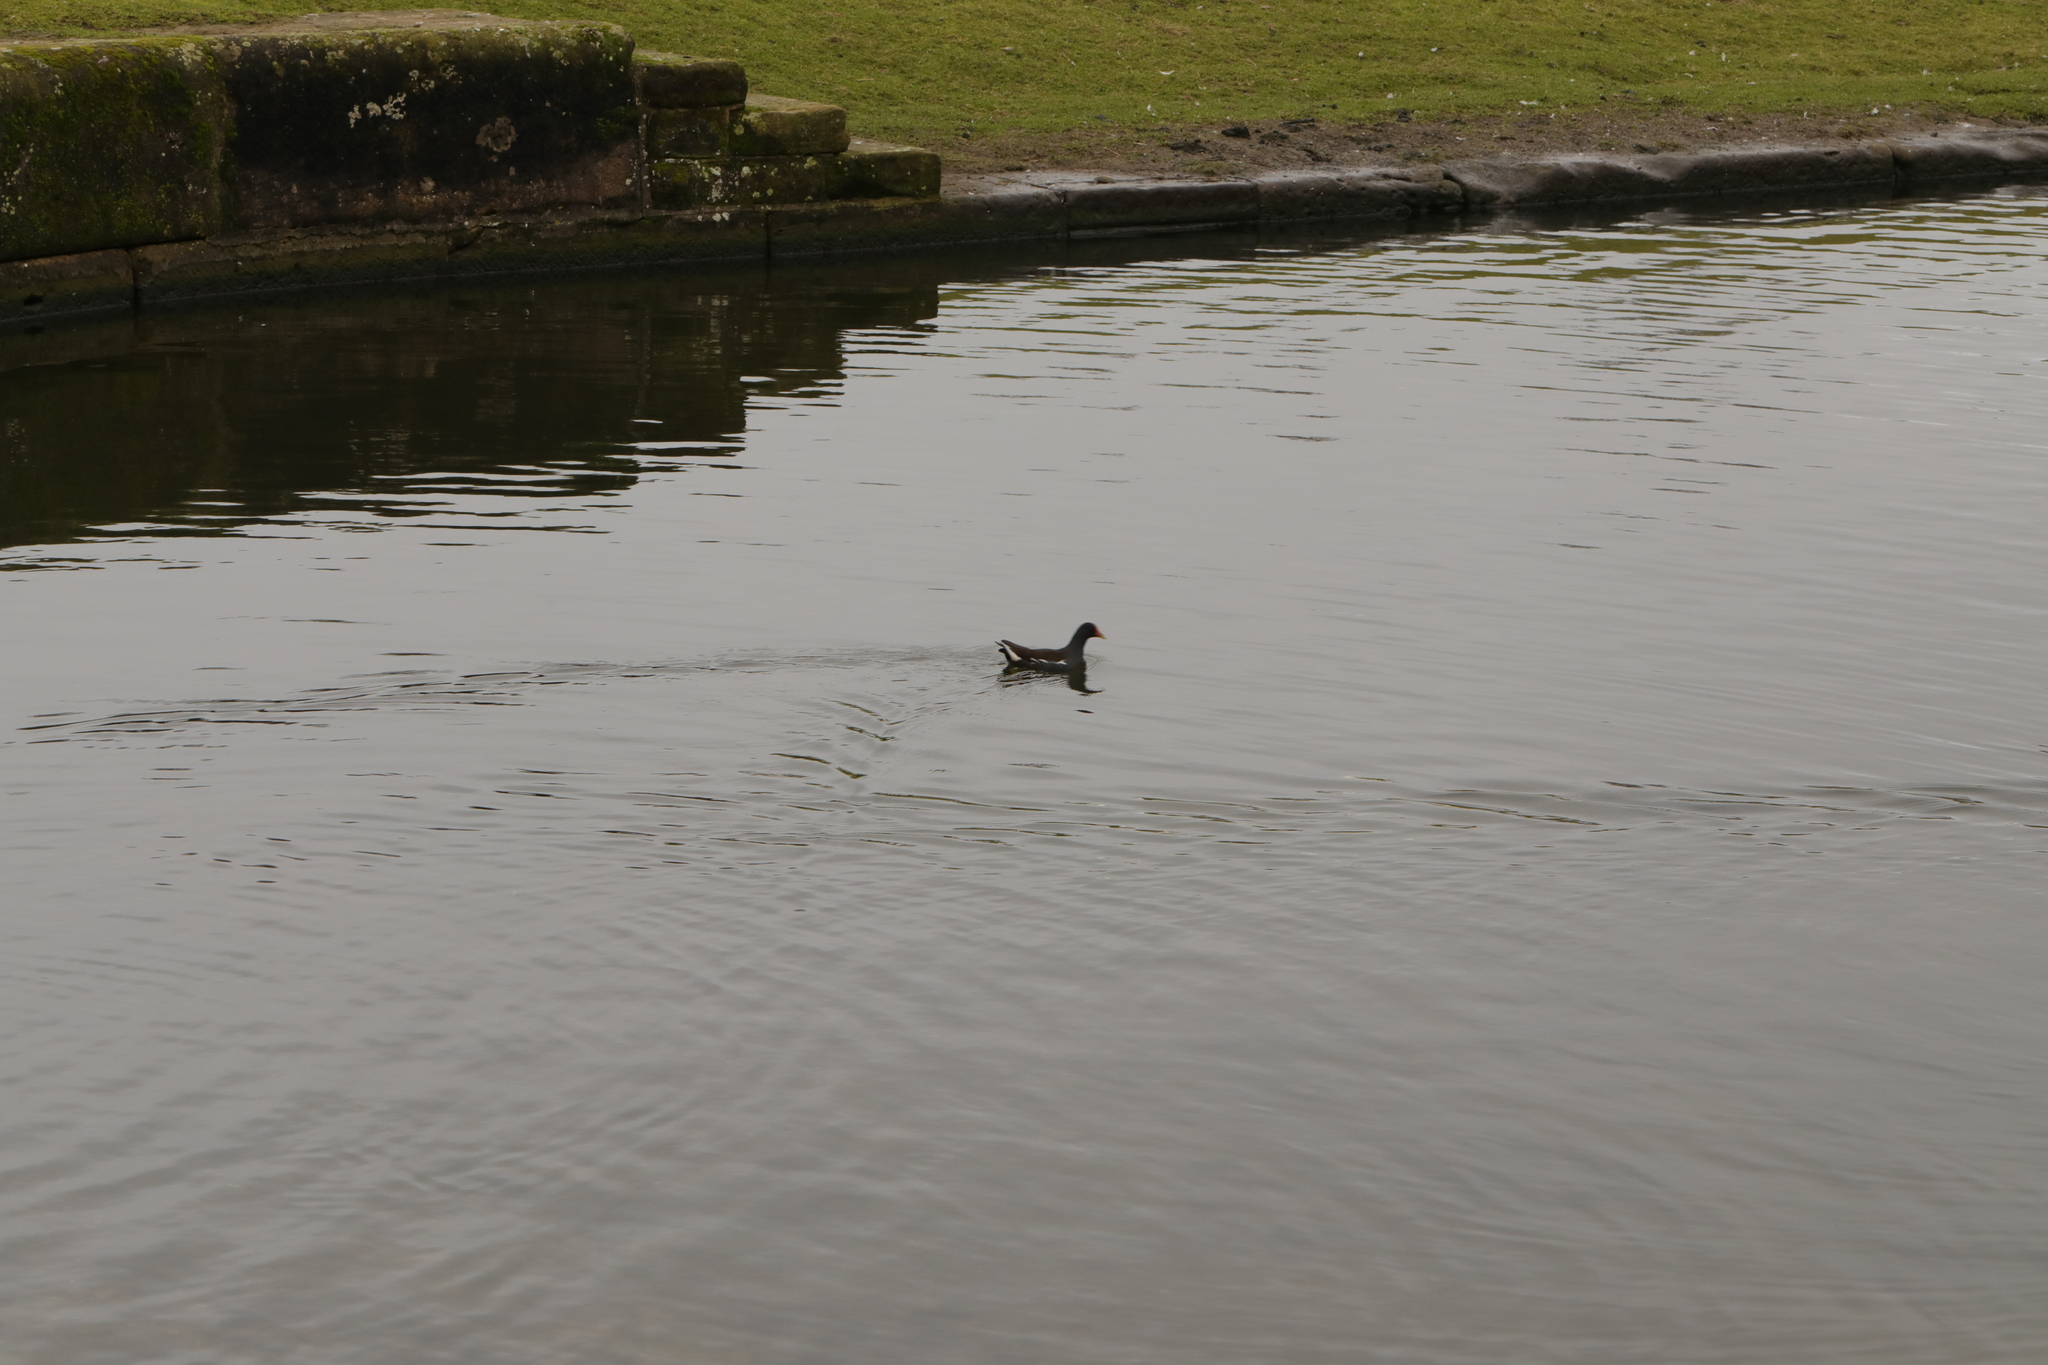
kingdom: Animalia
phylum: Chordata
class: Aves
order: Gruiformes
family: Rallidae
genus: Gallinula
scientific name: Gallinula chloropus
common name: Common moorhen
